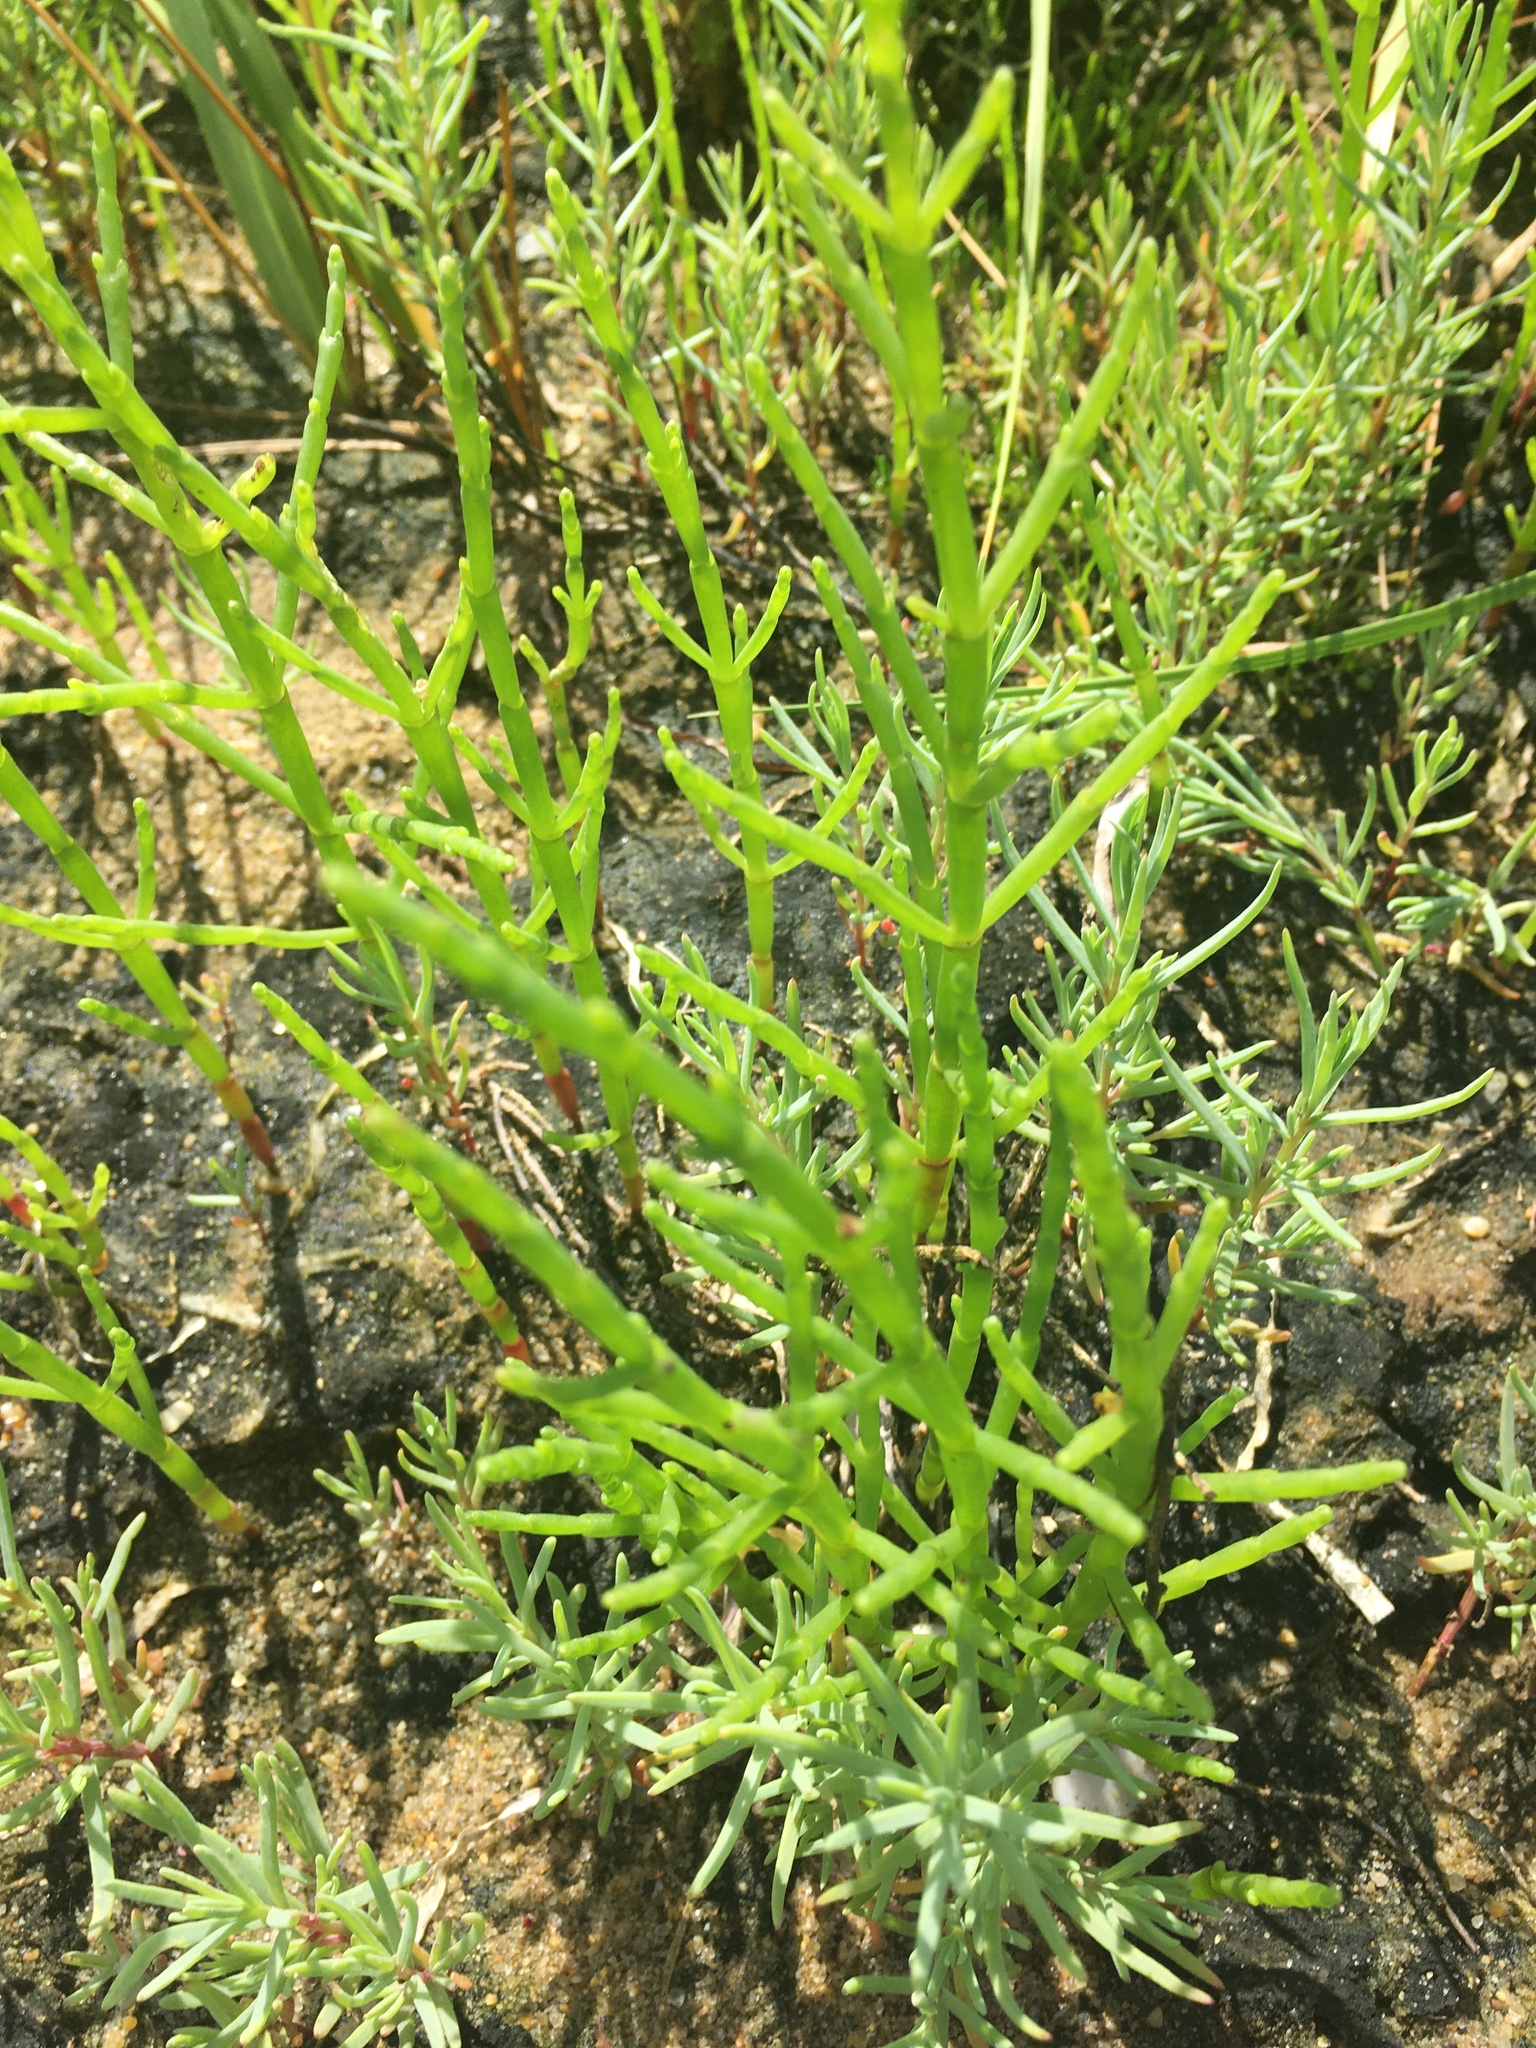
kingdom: Plantae
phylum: Tracheophyta
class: Magnoliopsida
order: Caryophyllales
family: Amaranthaceae
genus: Salicornia
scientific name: Salicornia virginica
